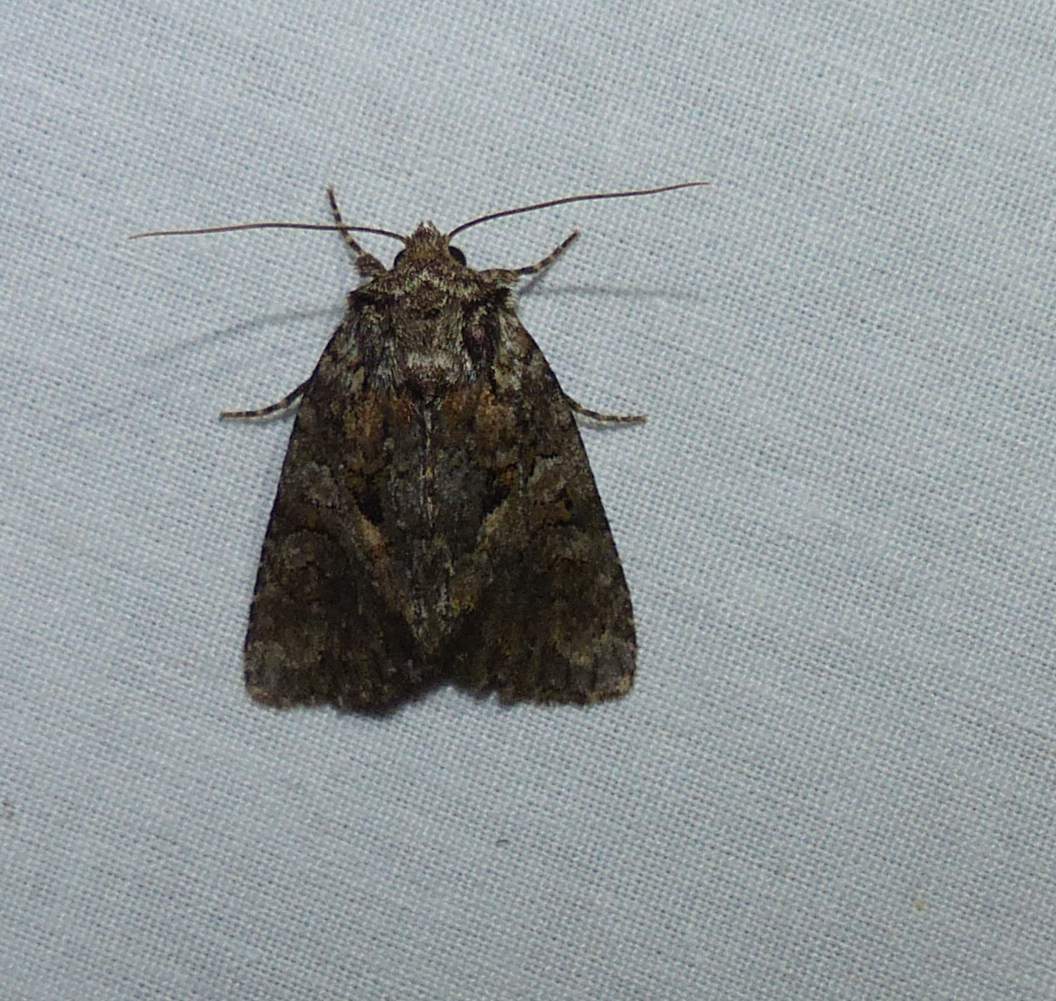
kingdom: Animalia
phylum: Arthropoda
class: Insecta
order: Lepidoptera
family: Noctuidae
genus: Orthodes
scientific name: Orthodes detracta
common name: Disparaged arches moth
